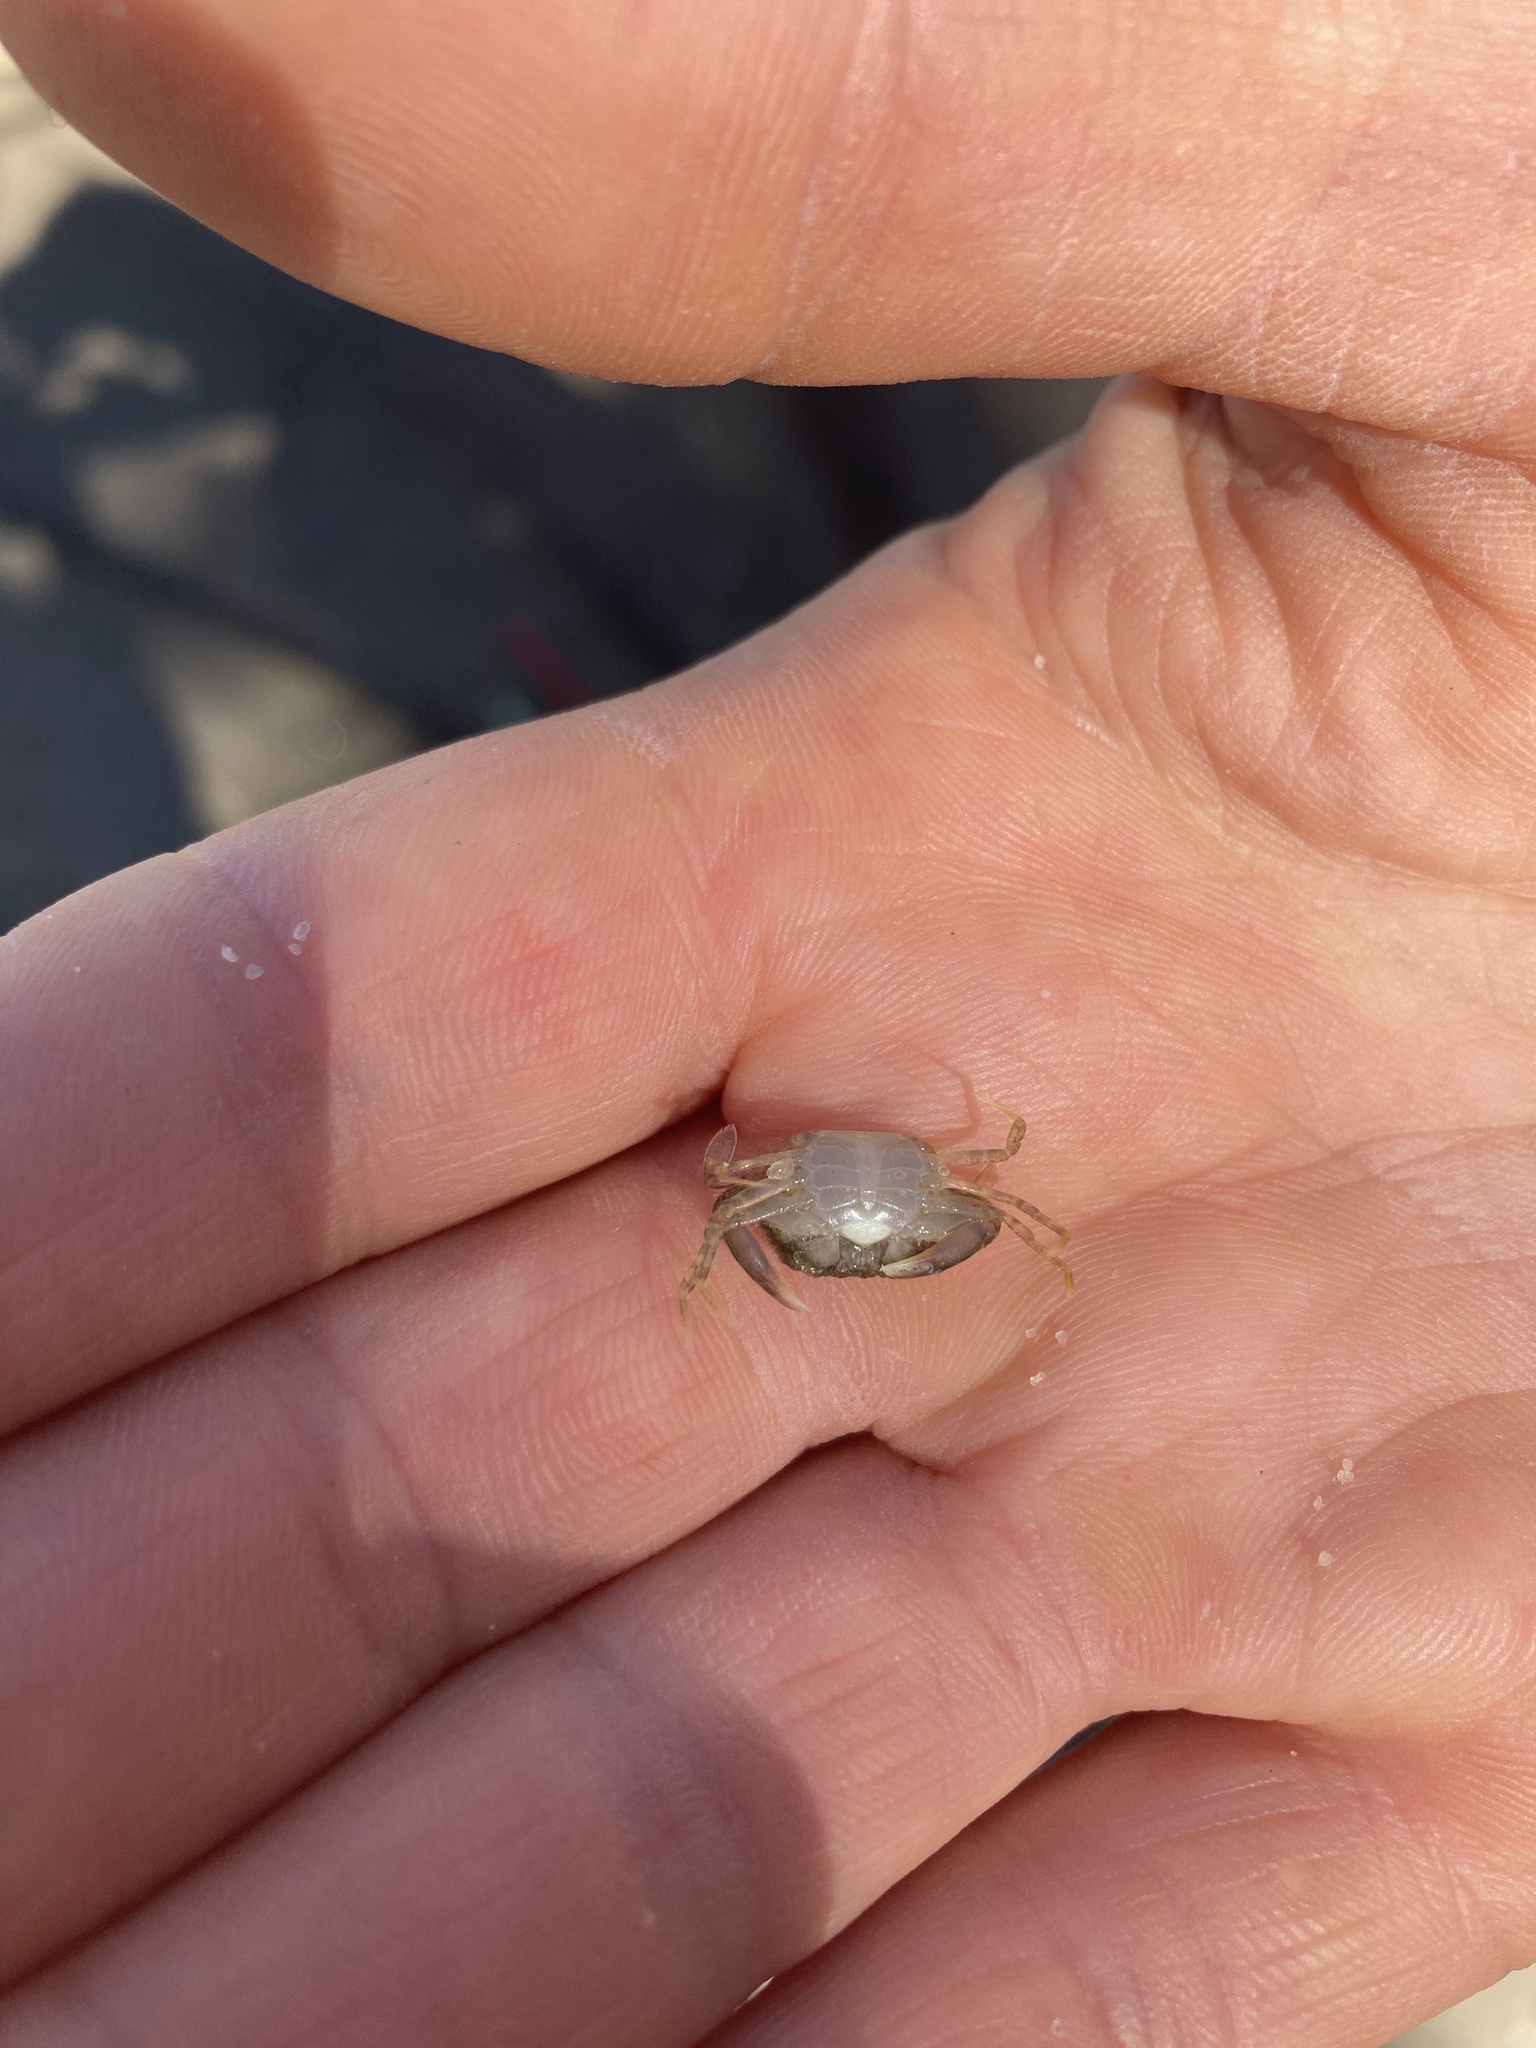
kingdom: Animalia
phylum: Arthropoda
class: Malacostraca
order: Decapoda
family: Portunidae
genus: Callinectes
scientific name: Callinectes sapidus
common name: Blue crab
